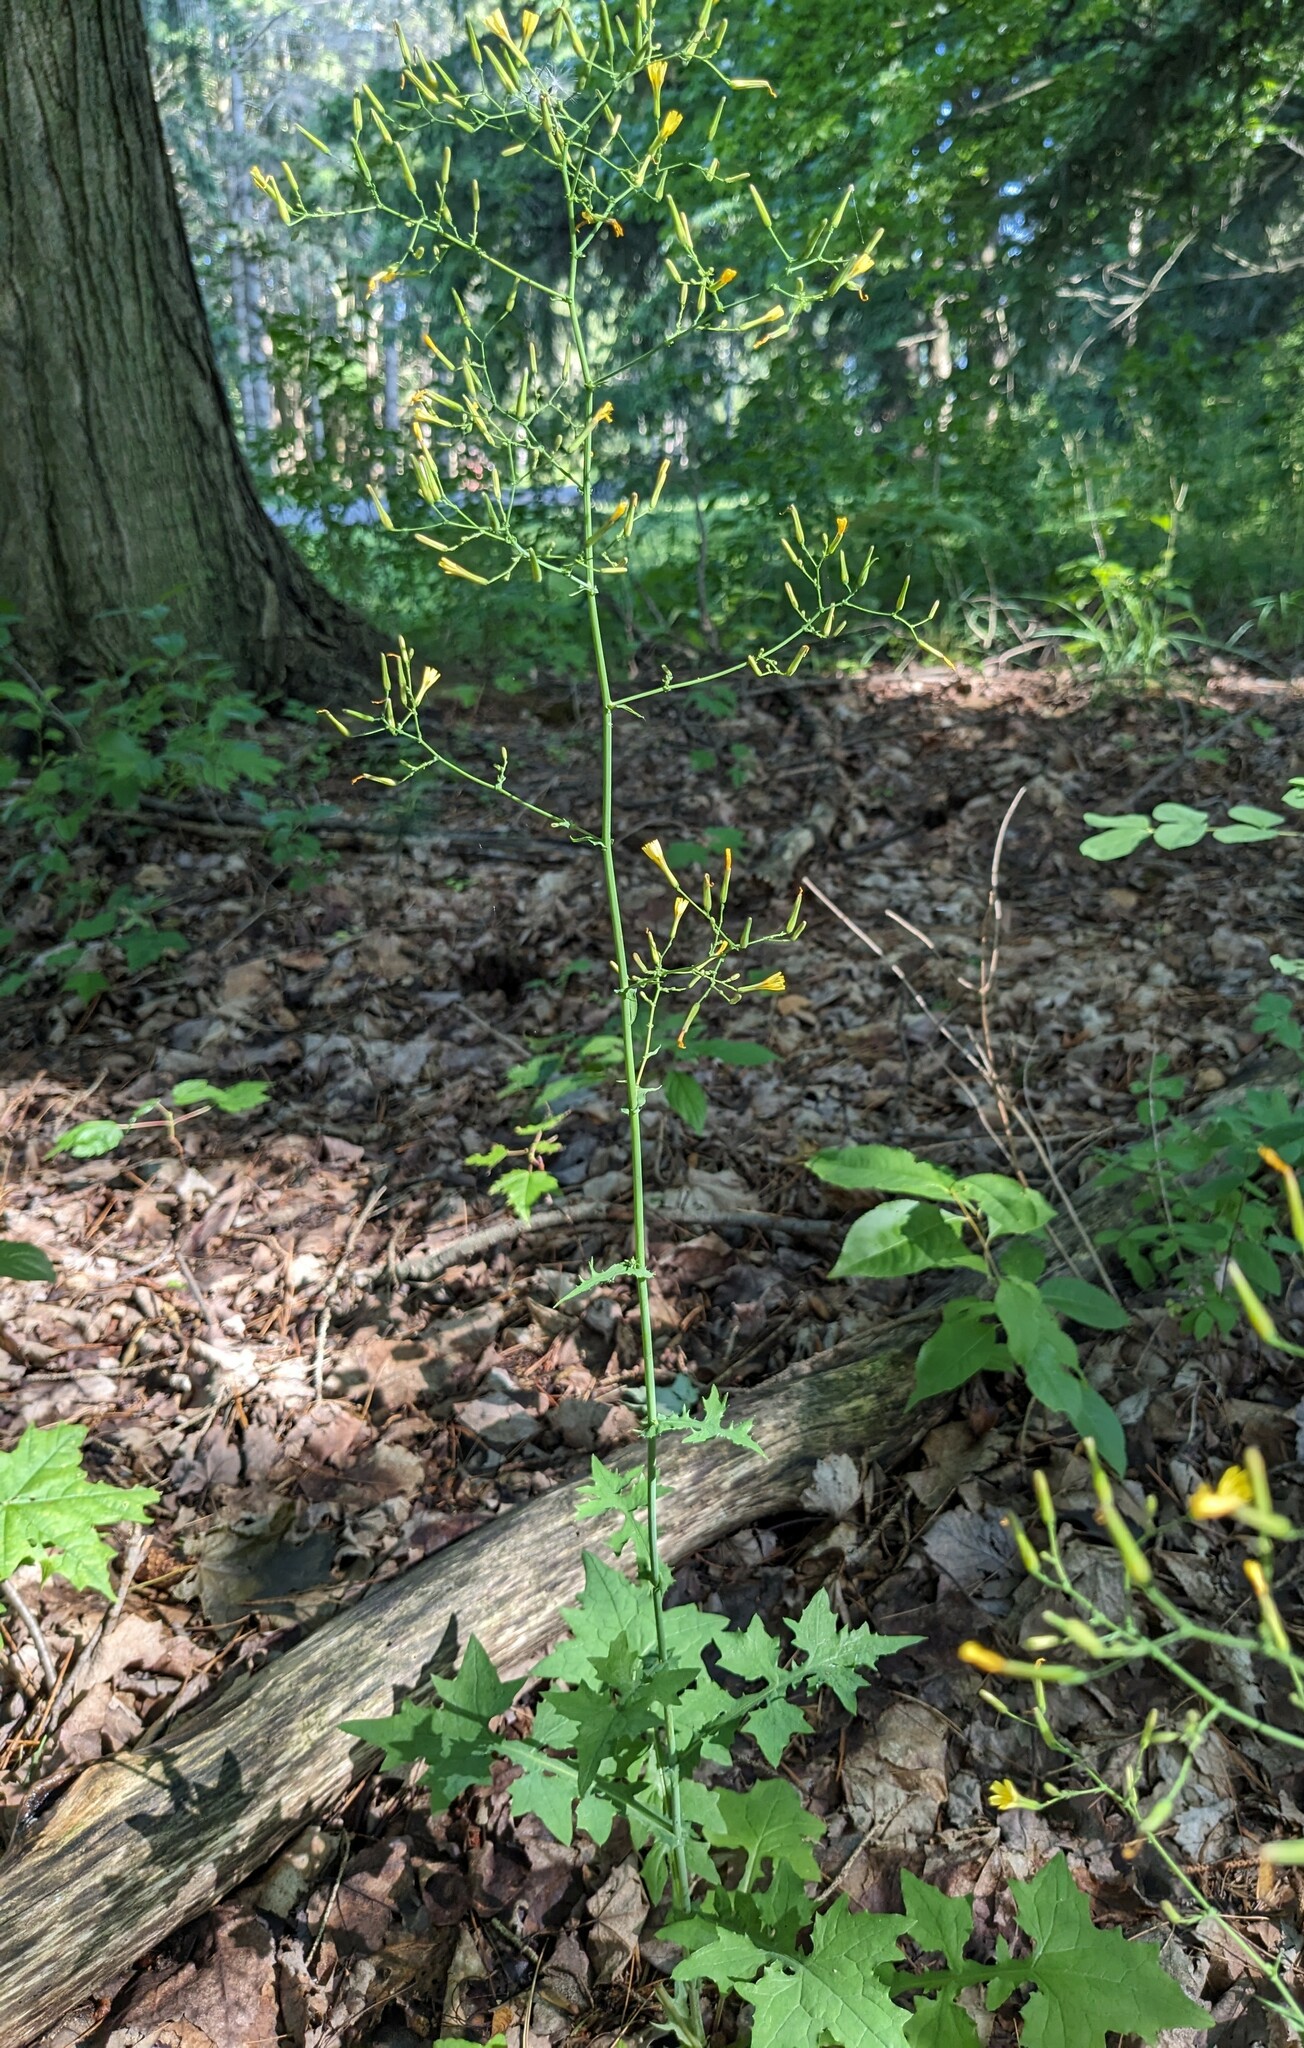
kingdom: Plantae
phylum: Tracheophyta
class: Magnoliopsida
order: Asterales
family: Asteraceae
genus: Mycelis
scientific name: Mycelis muralis
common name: Wall lettuce
